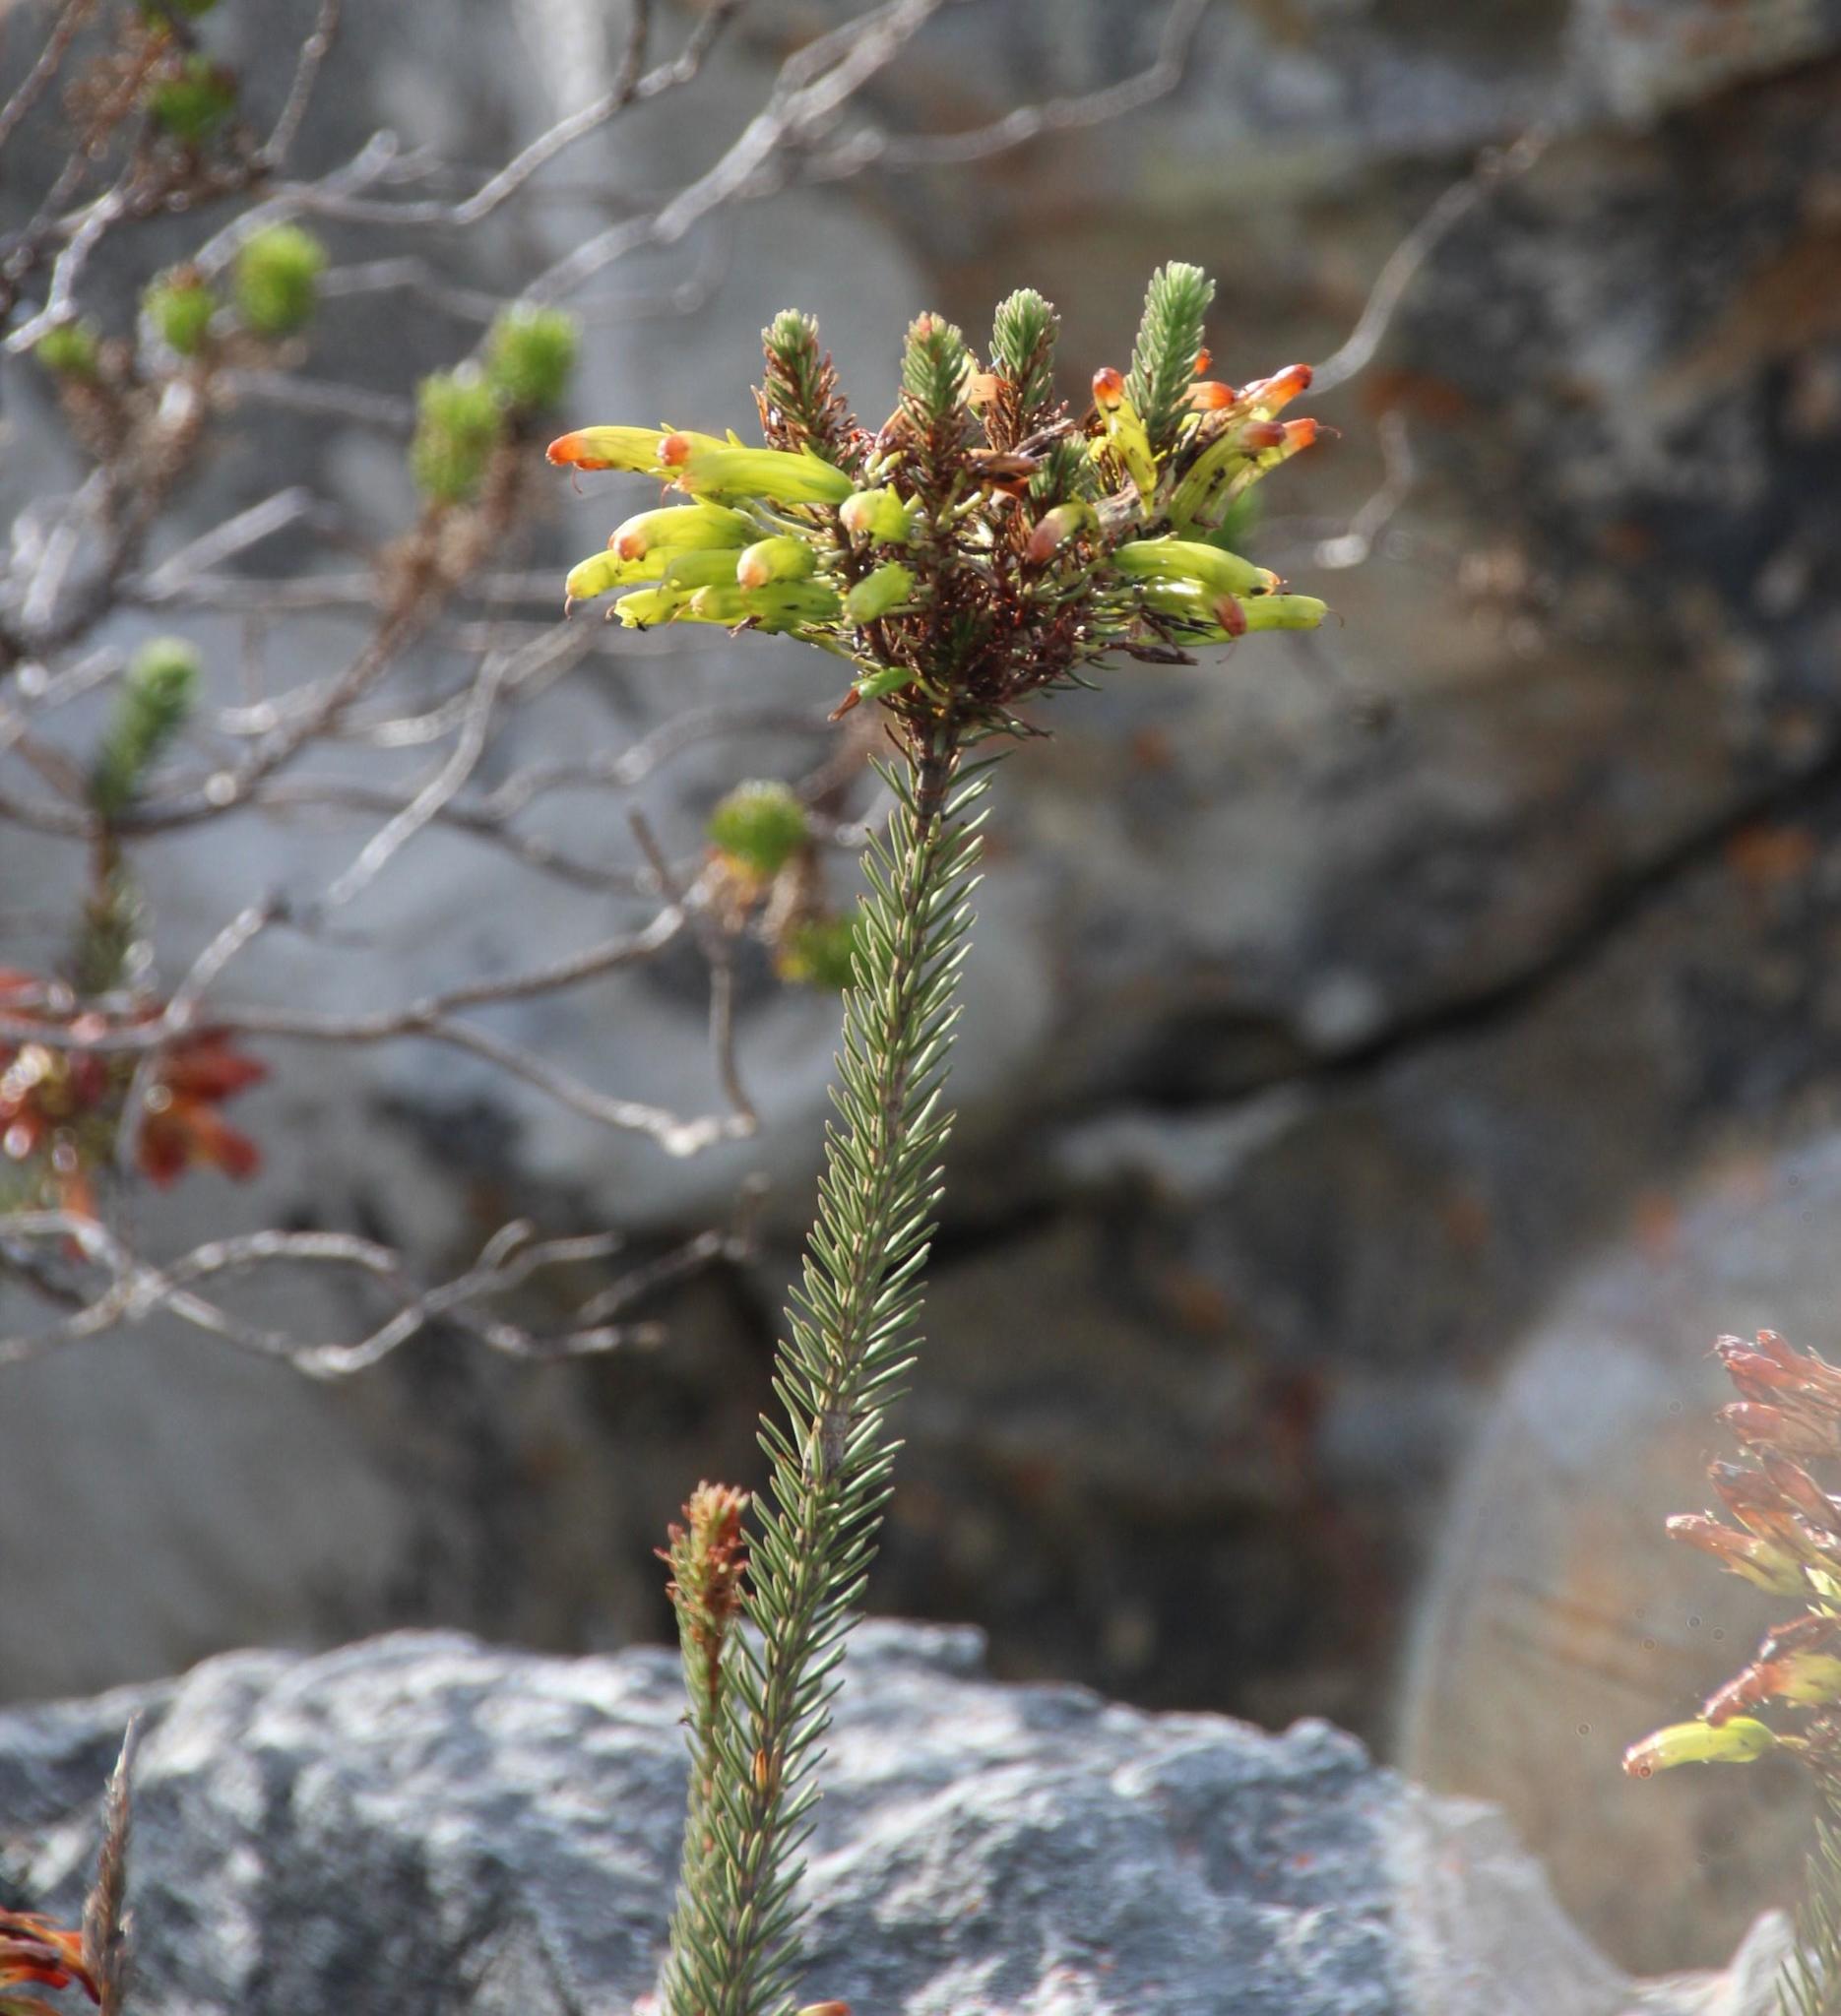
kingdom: Plantae
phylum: Tracheophyta
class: Magnoliopsida
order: Ericales
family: Ericaceae
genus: Erica
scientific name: Erica thomae
